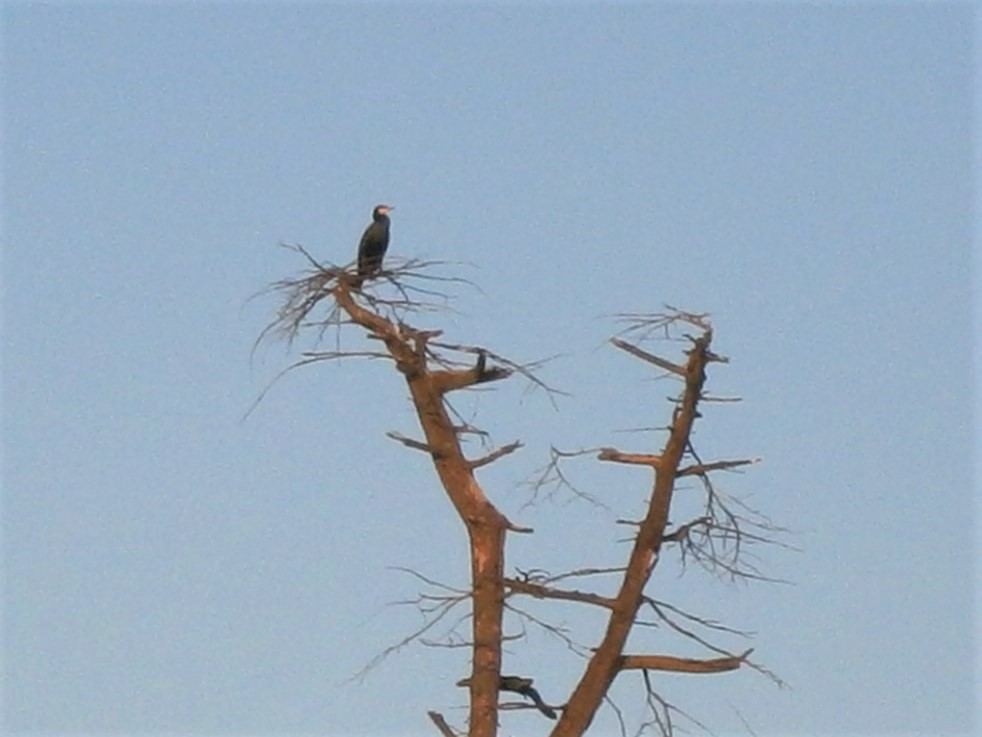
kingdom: Animalia
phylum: Chordata
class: Aves
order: Suliformes
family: Phalacrocoracidae
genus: Phalacrocorax
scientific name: Phalacrocorax carbo
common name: Great cormorant
